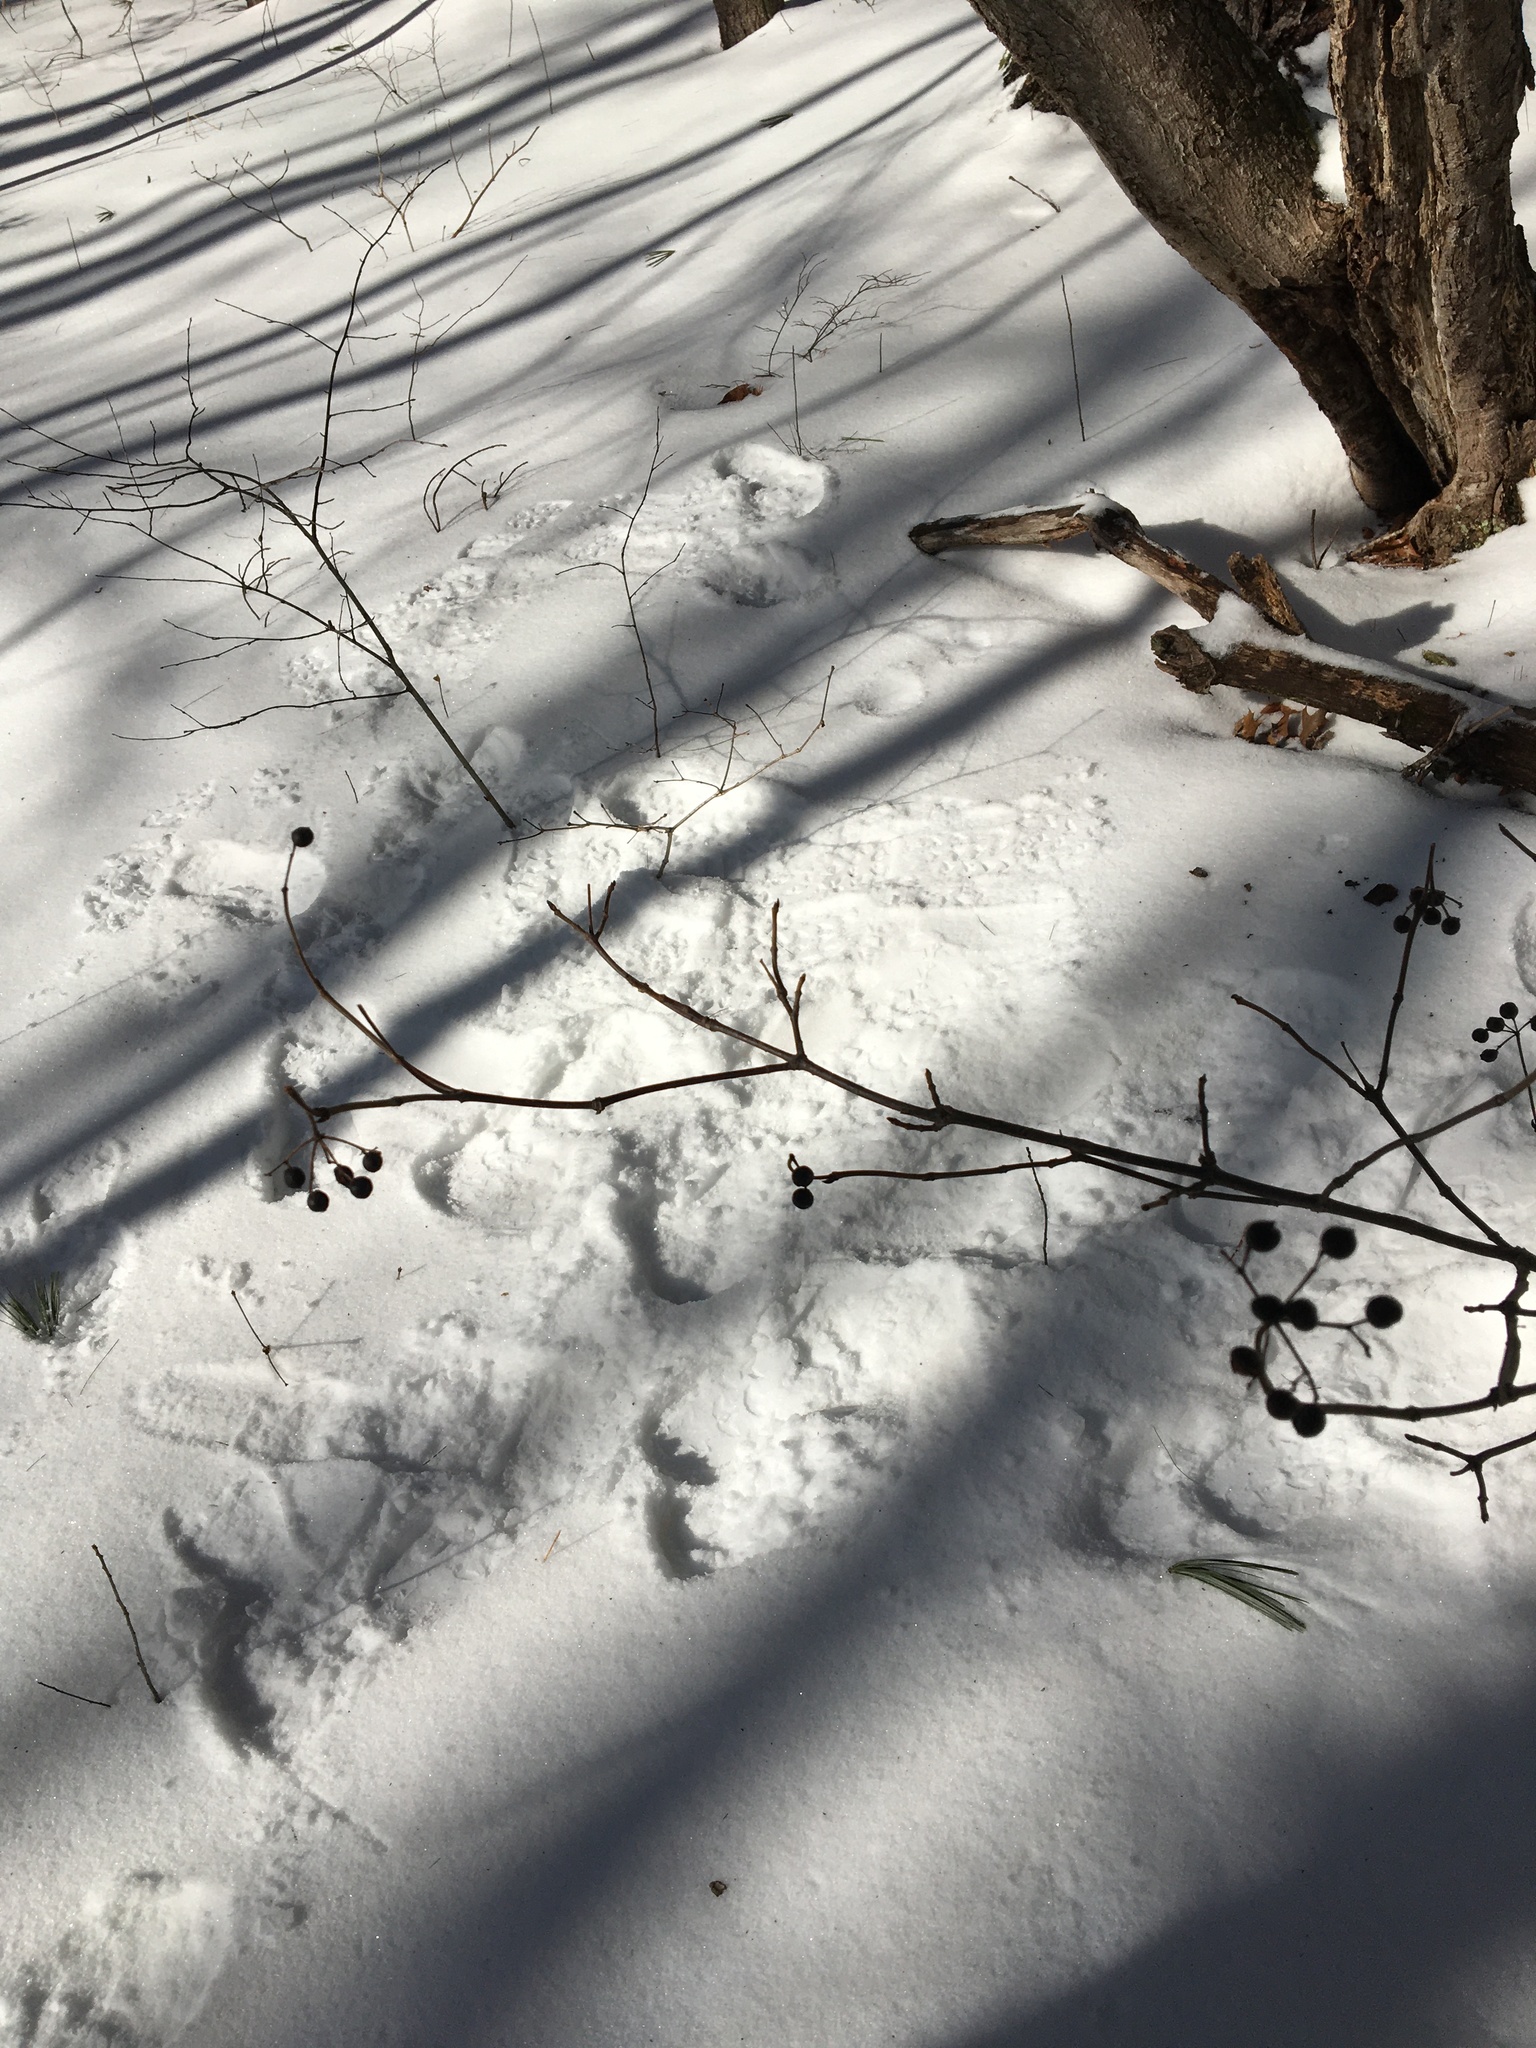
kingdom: Plantae
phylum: Tracheophyta
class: Magnoliopsida
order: Dipsacales
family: Viburnaceae
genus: Viburnum
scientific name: Viburnum acerifolium
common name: Dockmackie
